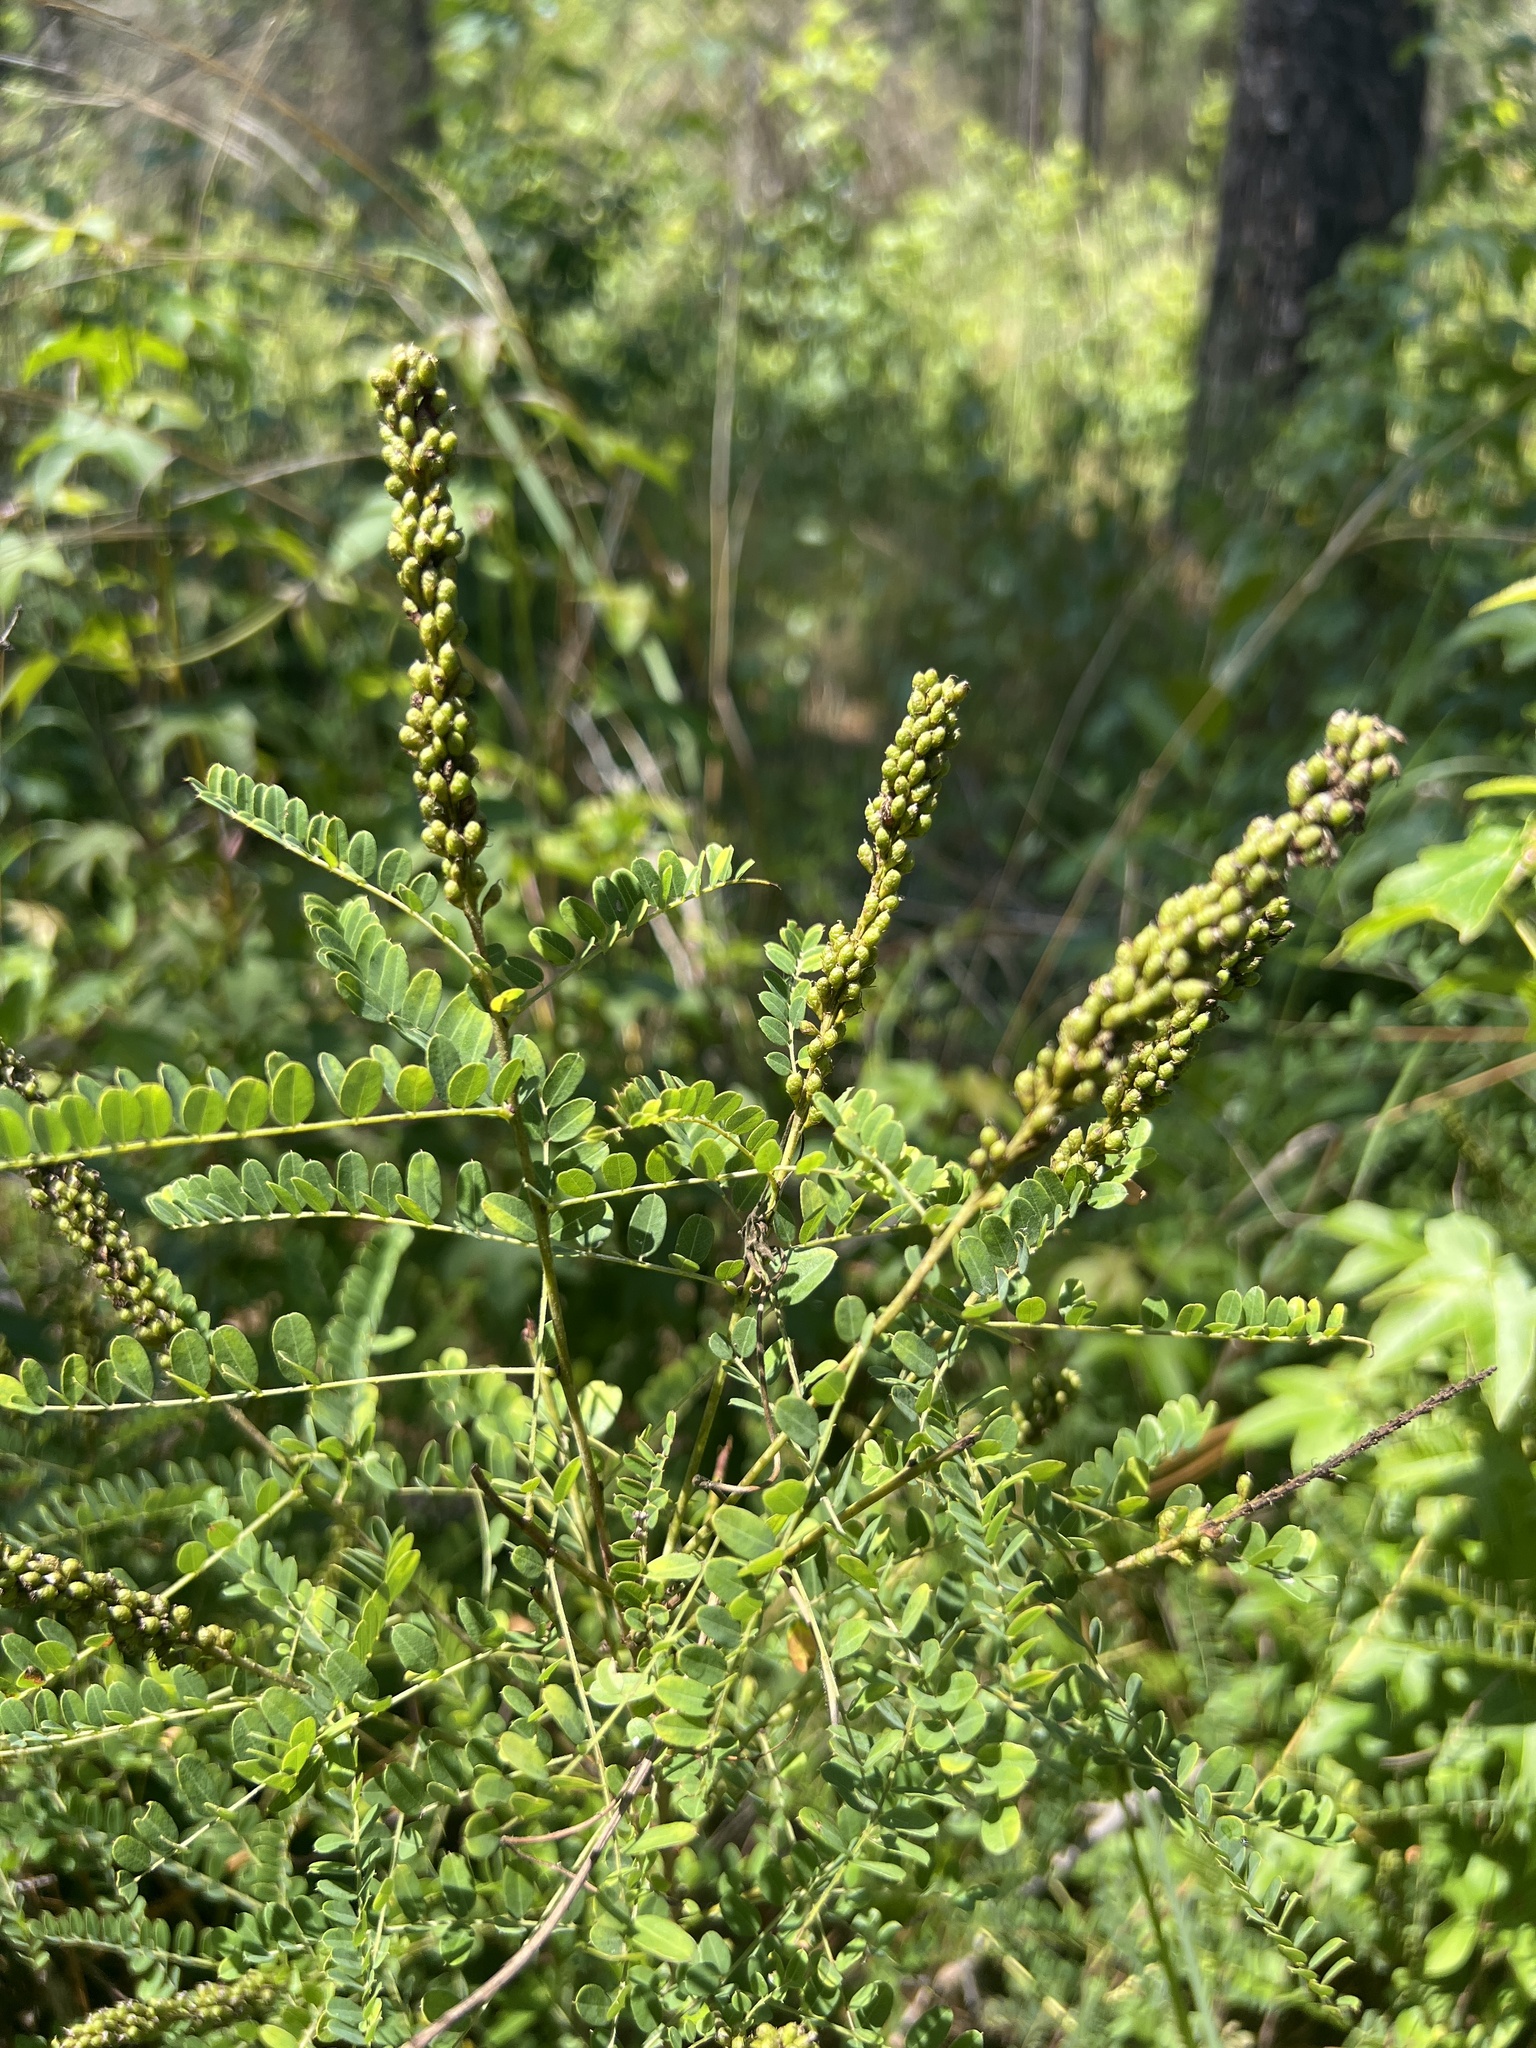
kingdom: Plantae
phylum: Tracheophyta
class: Magnoliopsida
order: Fabales
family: Fabaceae
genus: Amorpha
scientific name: Amorpha georgiana
